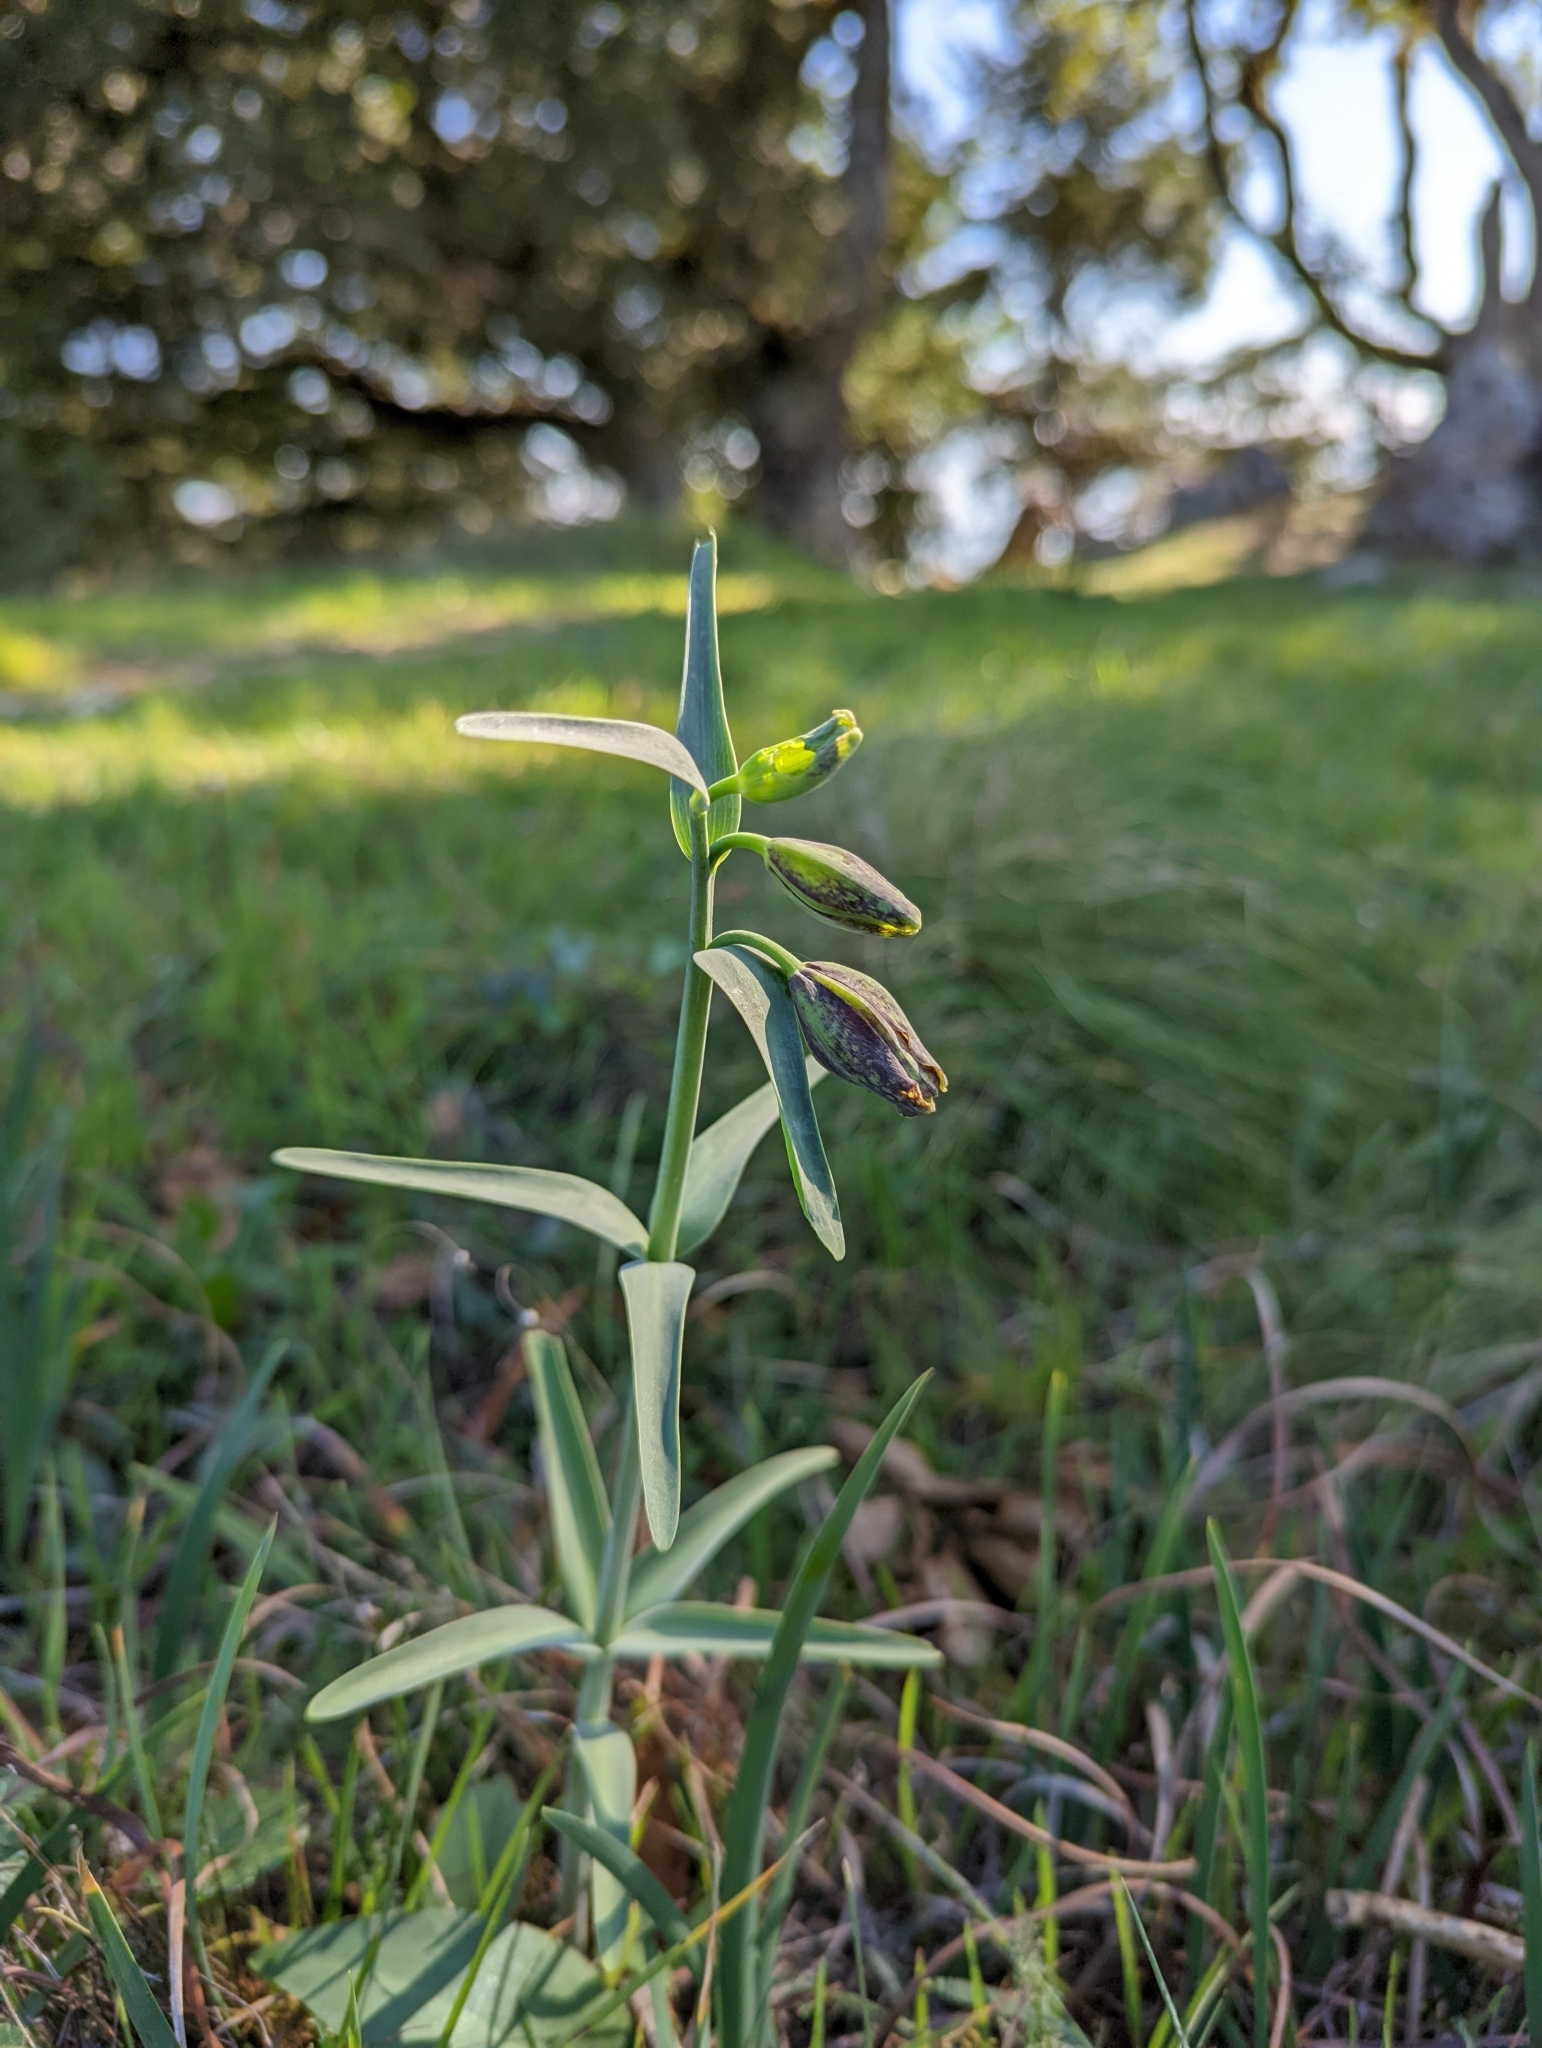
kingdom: Plantae
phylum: Tracheophyta
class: Liliopsida
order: Liliales
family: Liliaceae
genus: Fritillaria
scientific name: Fritillaria affinis
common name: Ojai fritillary
